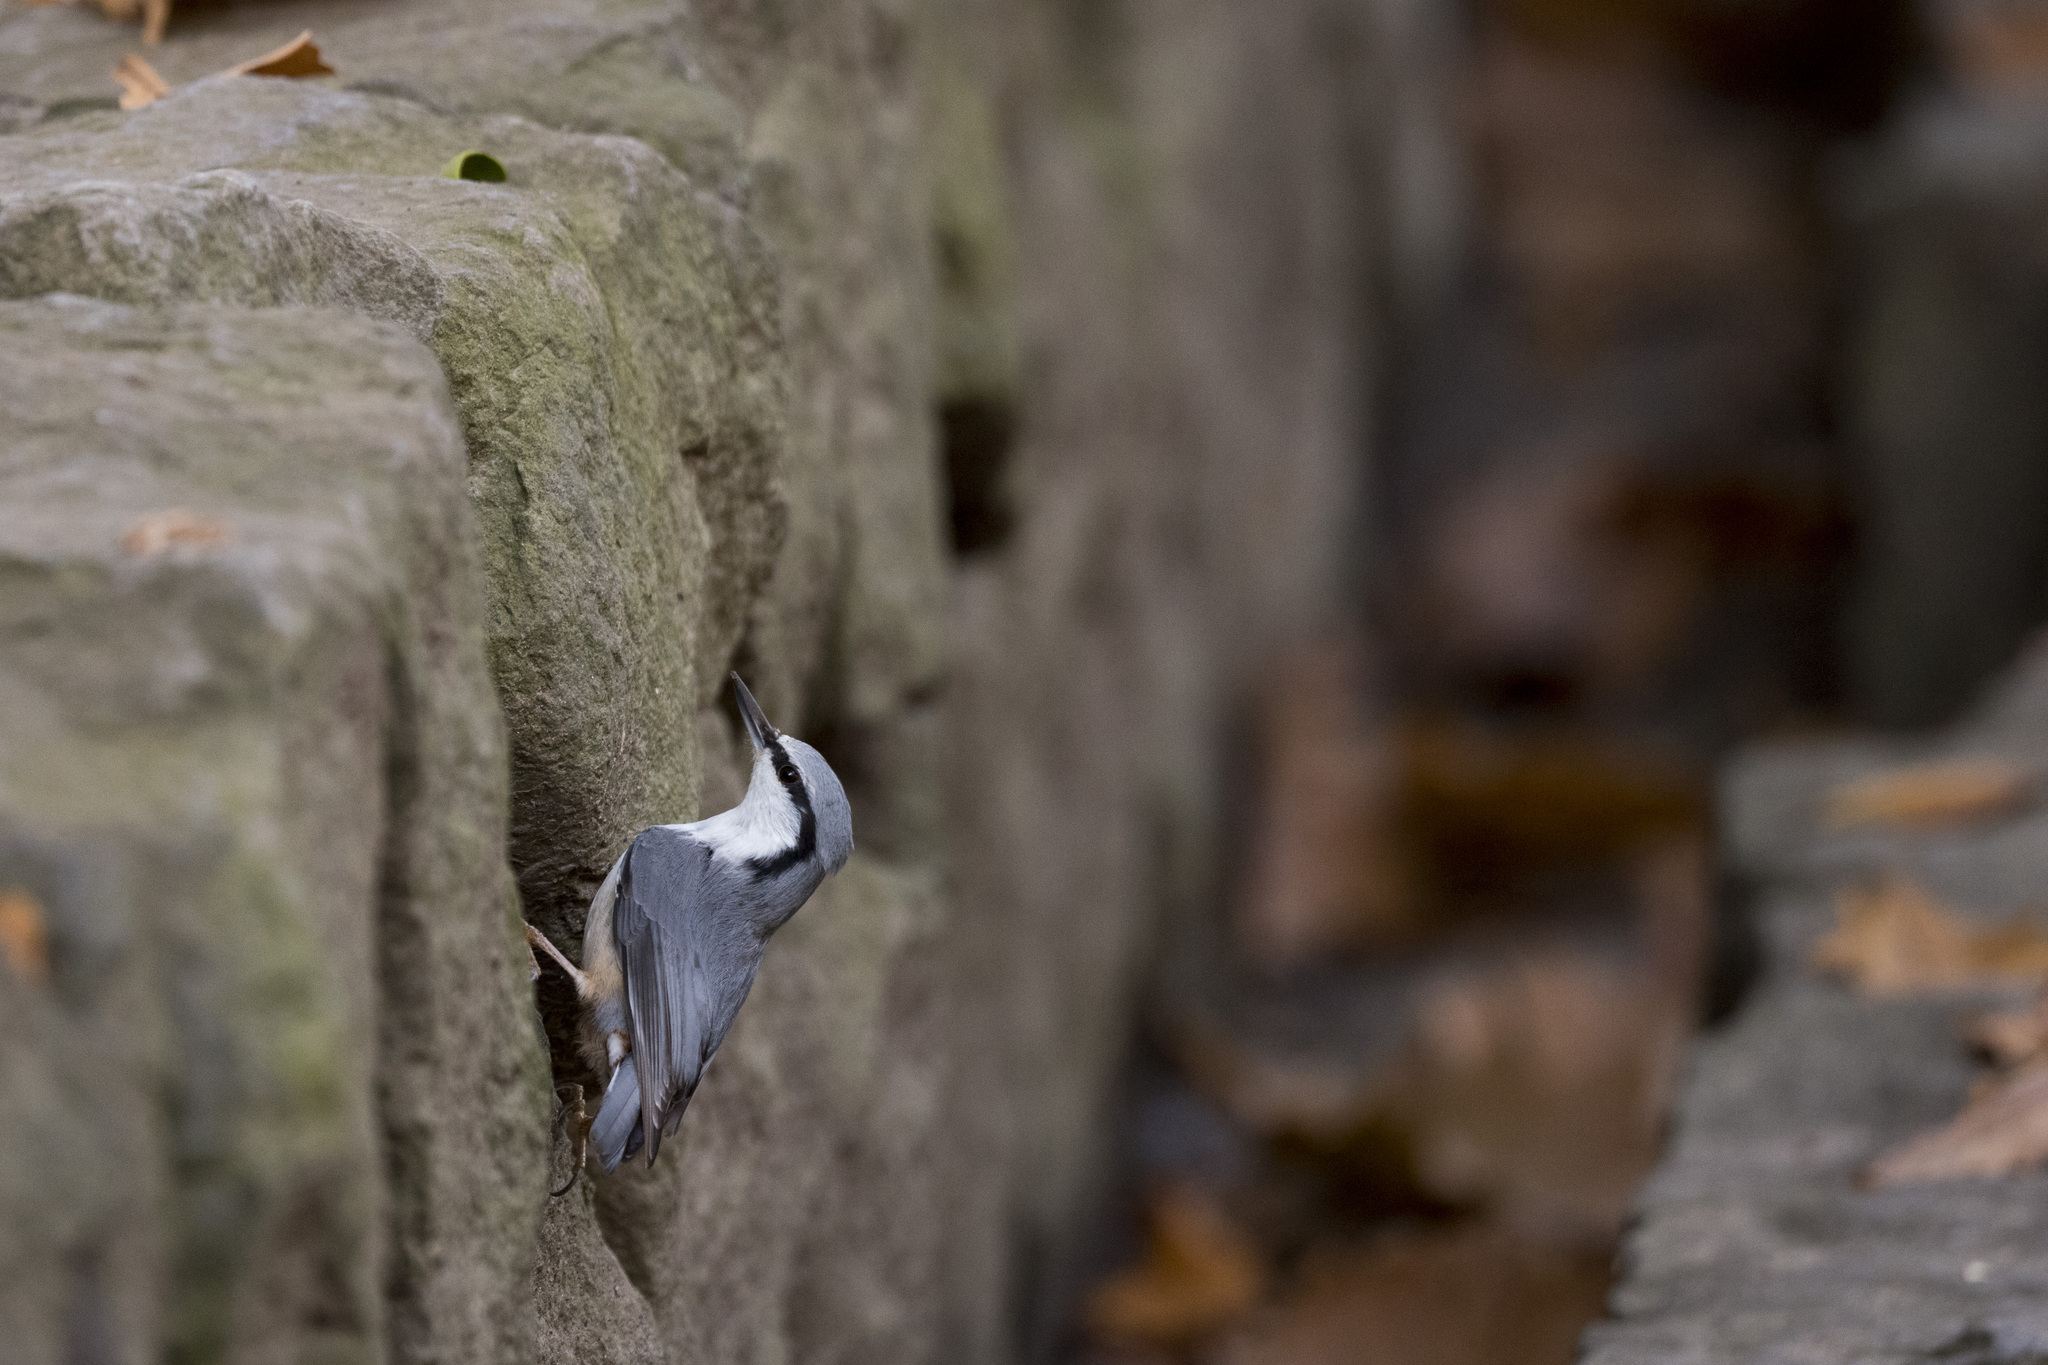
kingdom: Animalia
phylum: Chordata
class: Aves
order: Passeriformes
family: Sittidae
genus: Sitta
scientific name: Sitta europaea
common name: Eurasian nuthatch
